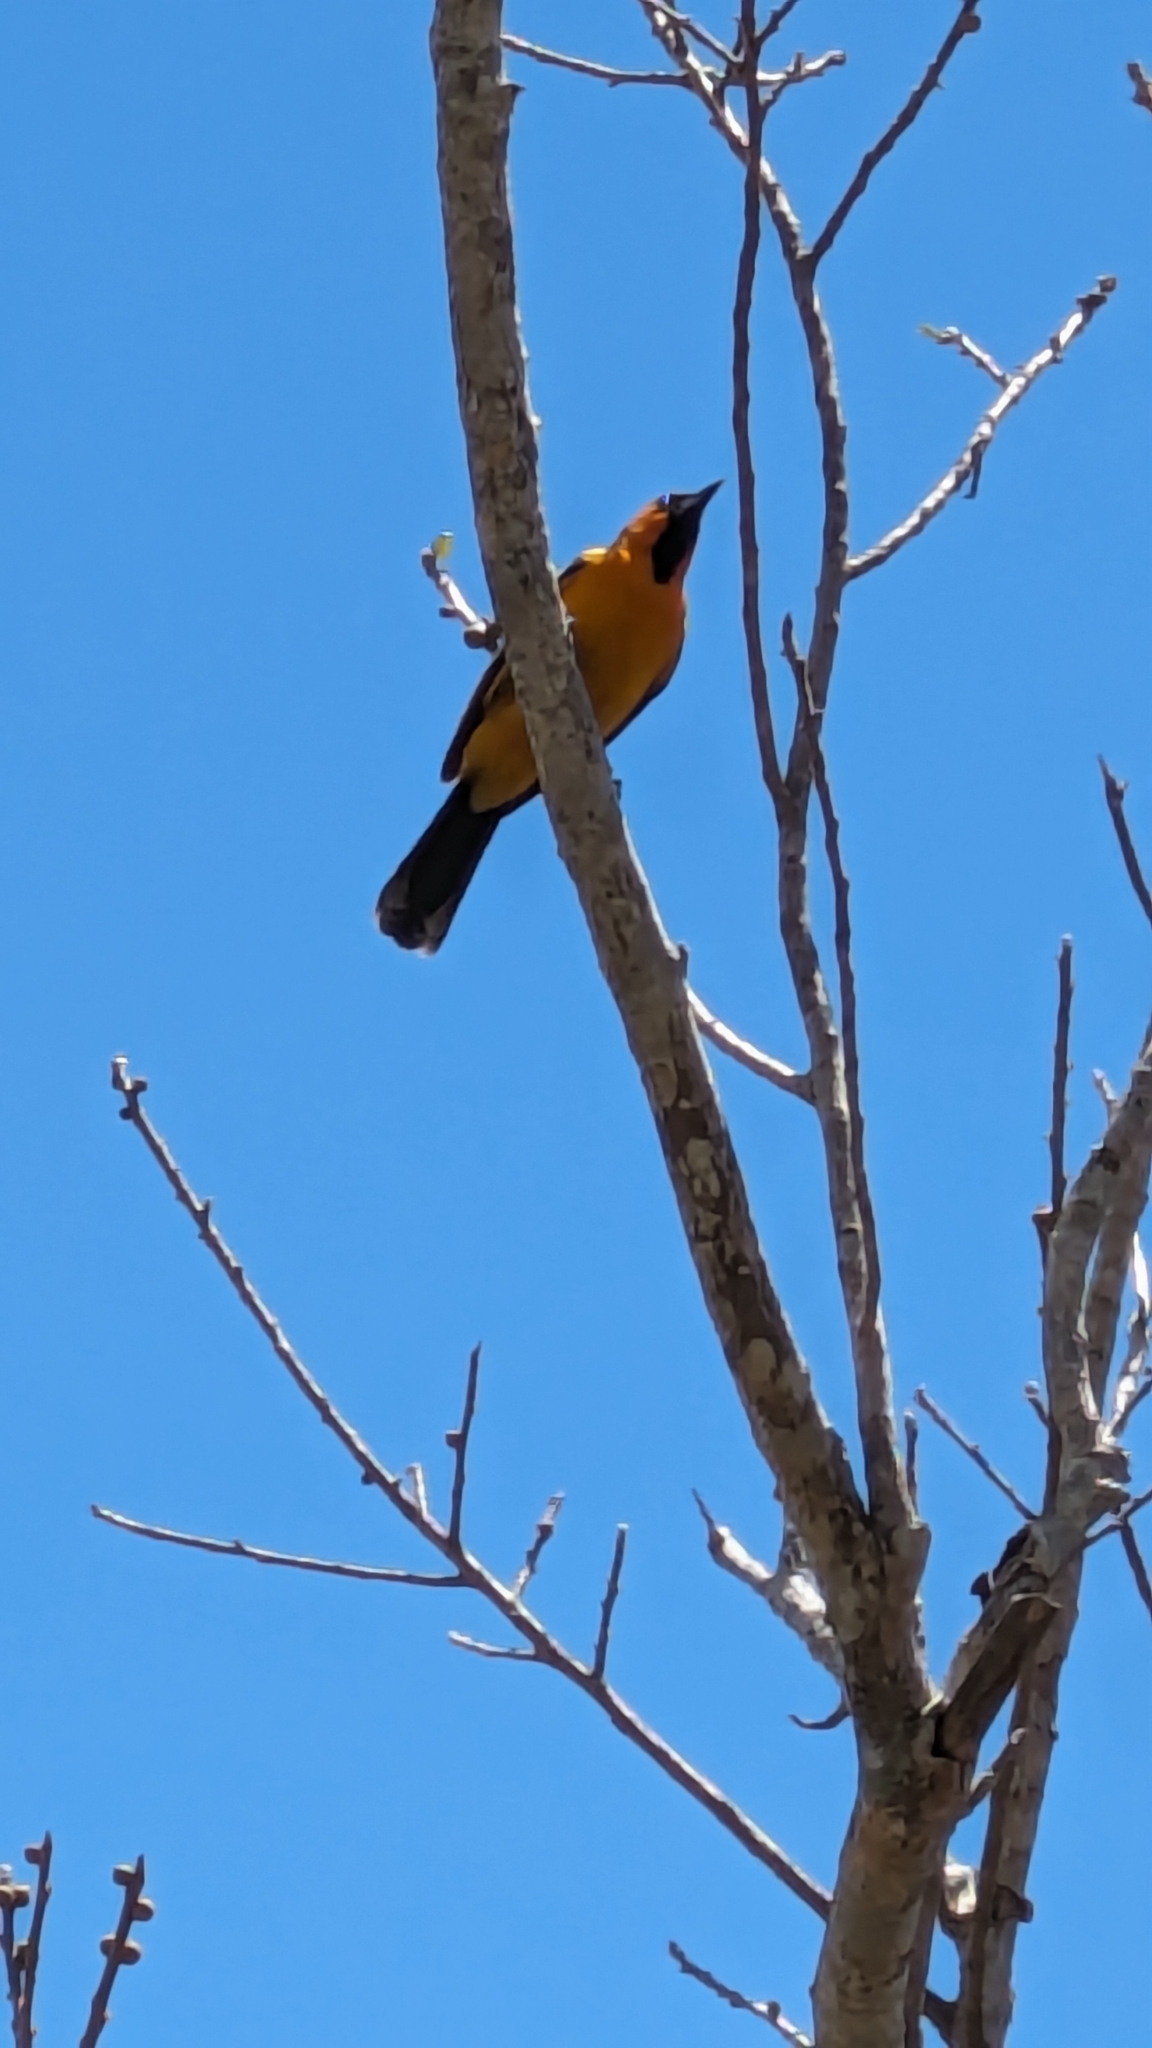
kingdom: Animalia
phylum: Chordata
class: Aves
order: Passeriformes
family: Icteridae
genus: Icterus
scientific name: Icterus pustulatus
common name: Streak-backed oriole
